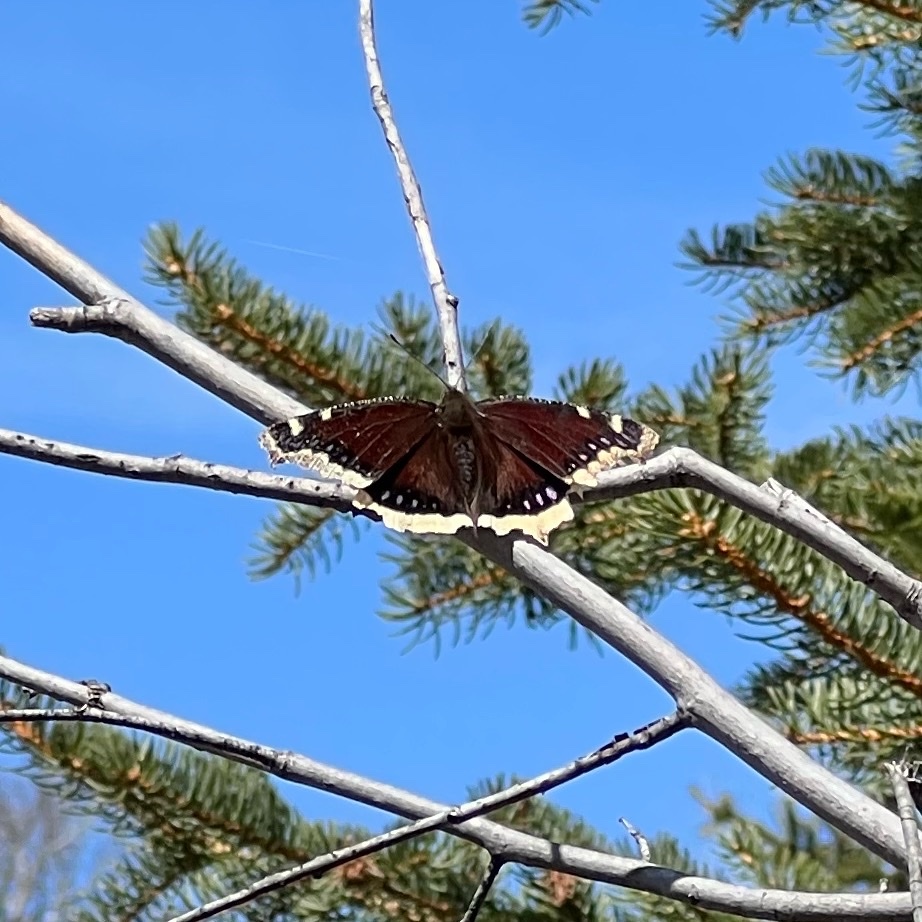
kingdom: Animalia
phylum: Arthropoda
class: Insecta
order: Lepidoptera
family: Nymphalidae
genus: Nymphalis
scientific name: Nymphalis antiopa
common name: Camberwell beauty
